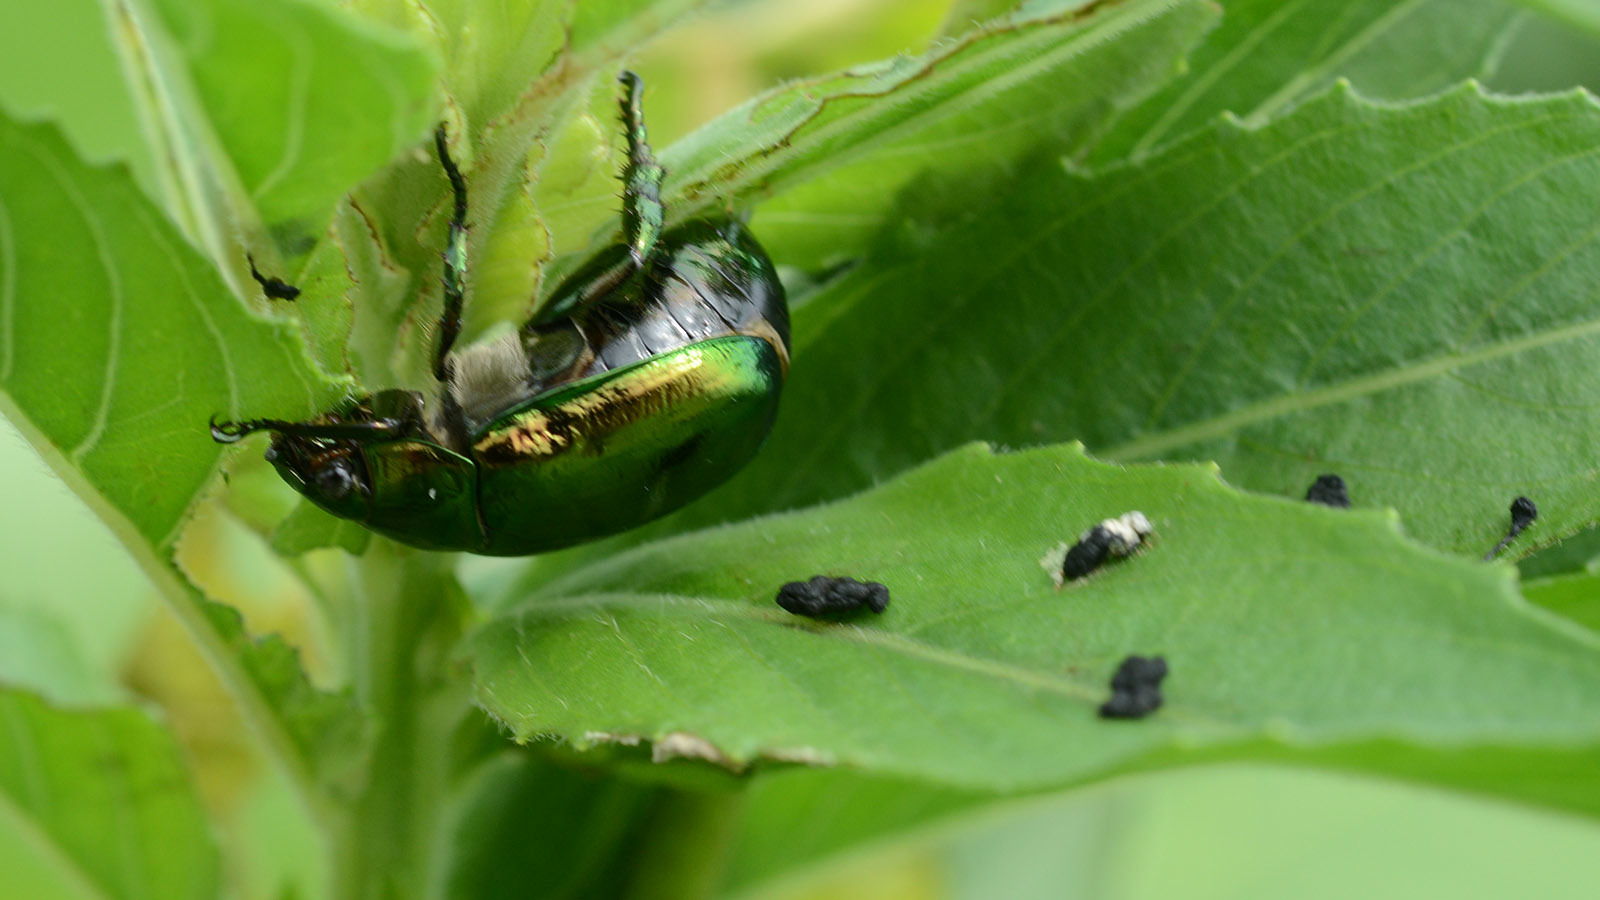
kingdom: Animalia
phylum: Arthropoda
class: Insecta
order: Coleoptera
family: Scarabaeidae
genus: Mimela
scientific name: Mimela splendens
